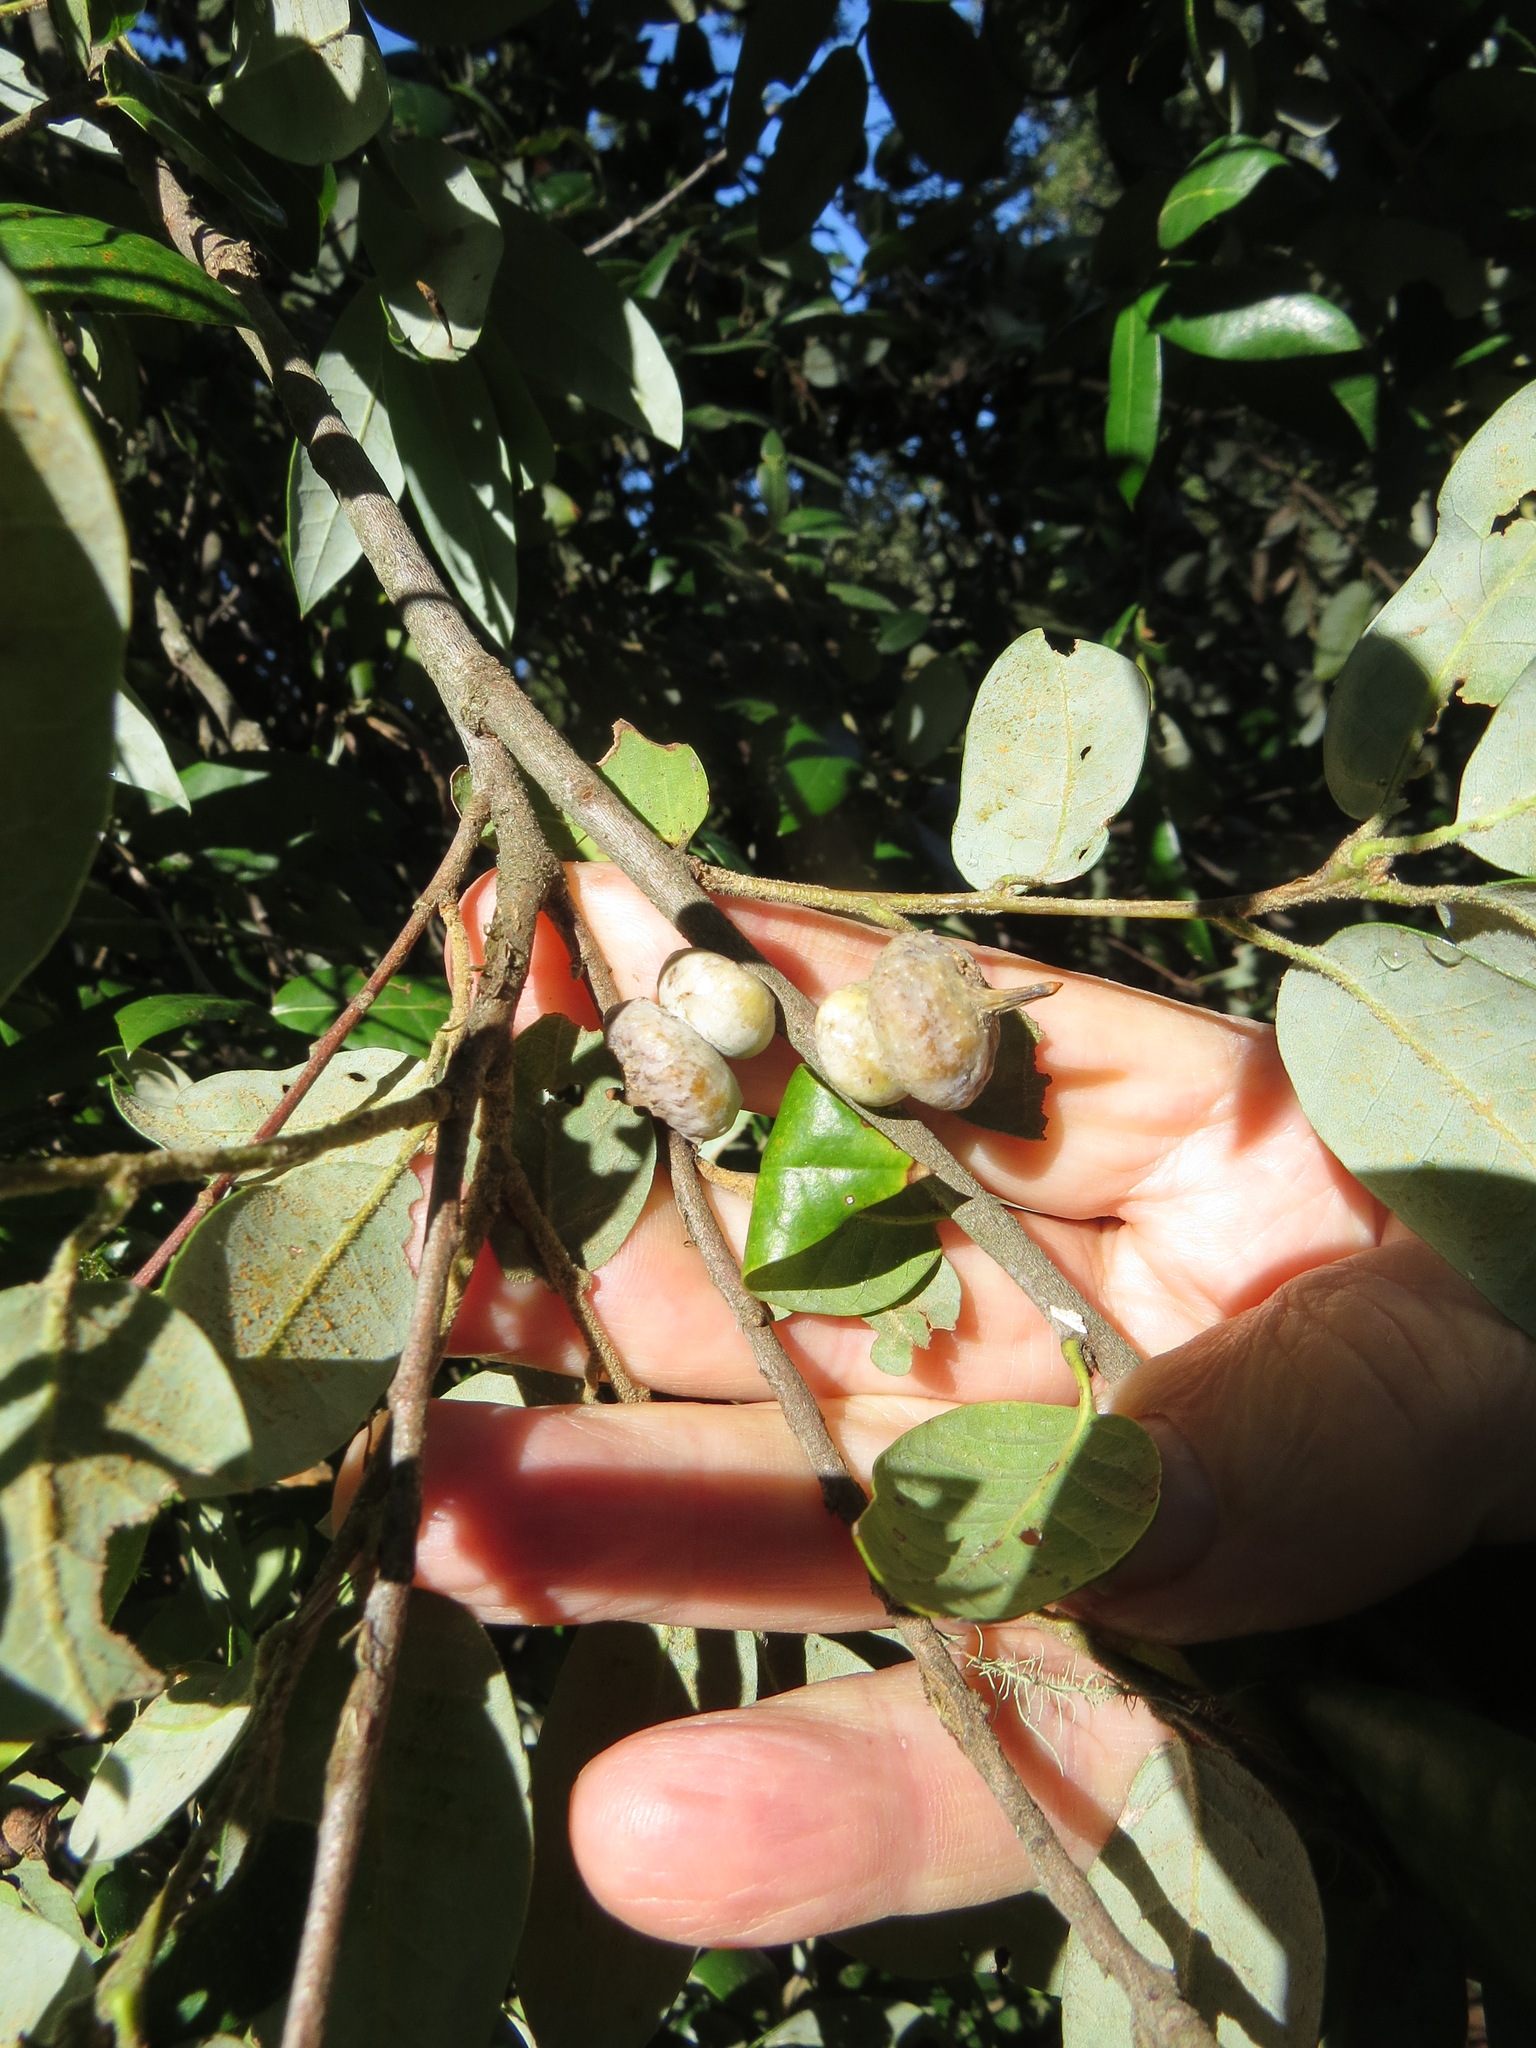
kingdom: Animalia
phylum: Arthropoda
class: Insecta
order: Hymenoptera
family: Cynipidae
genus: Heteroecus
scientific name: Heteroecus
